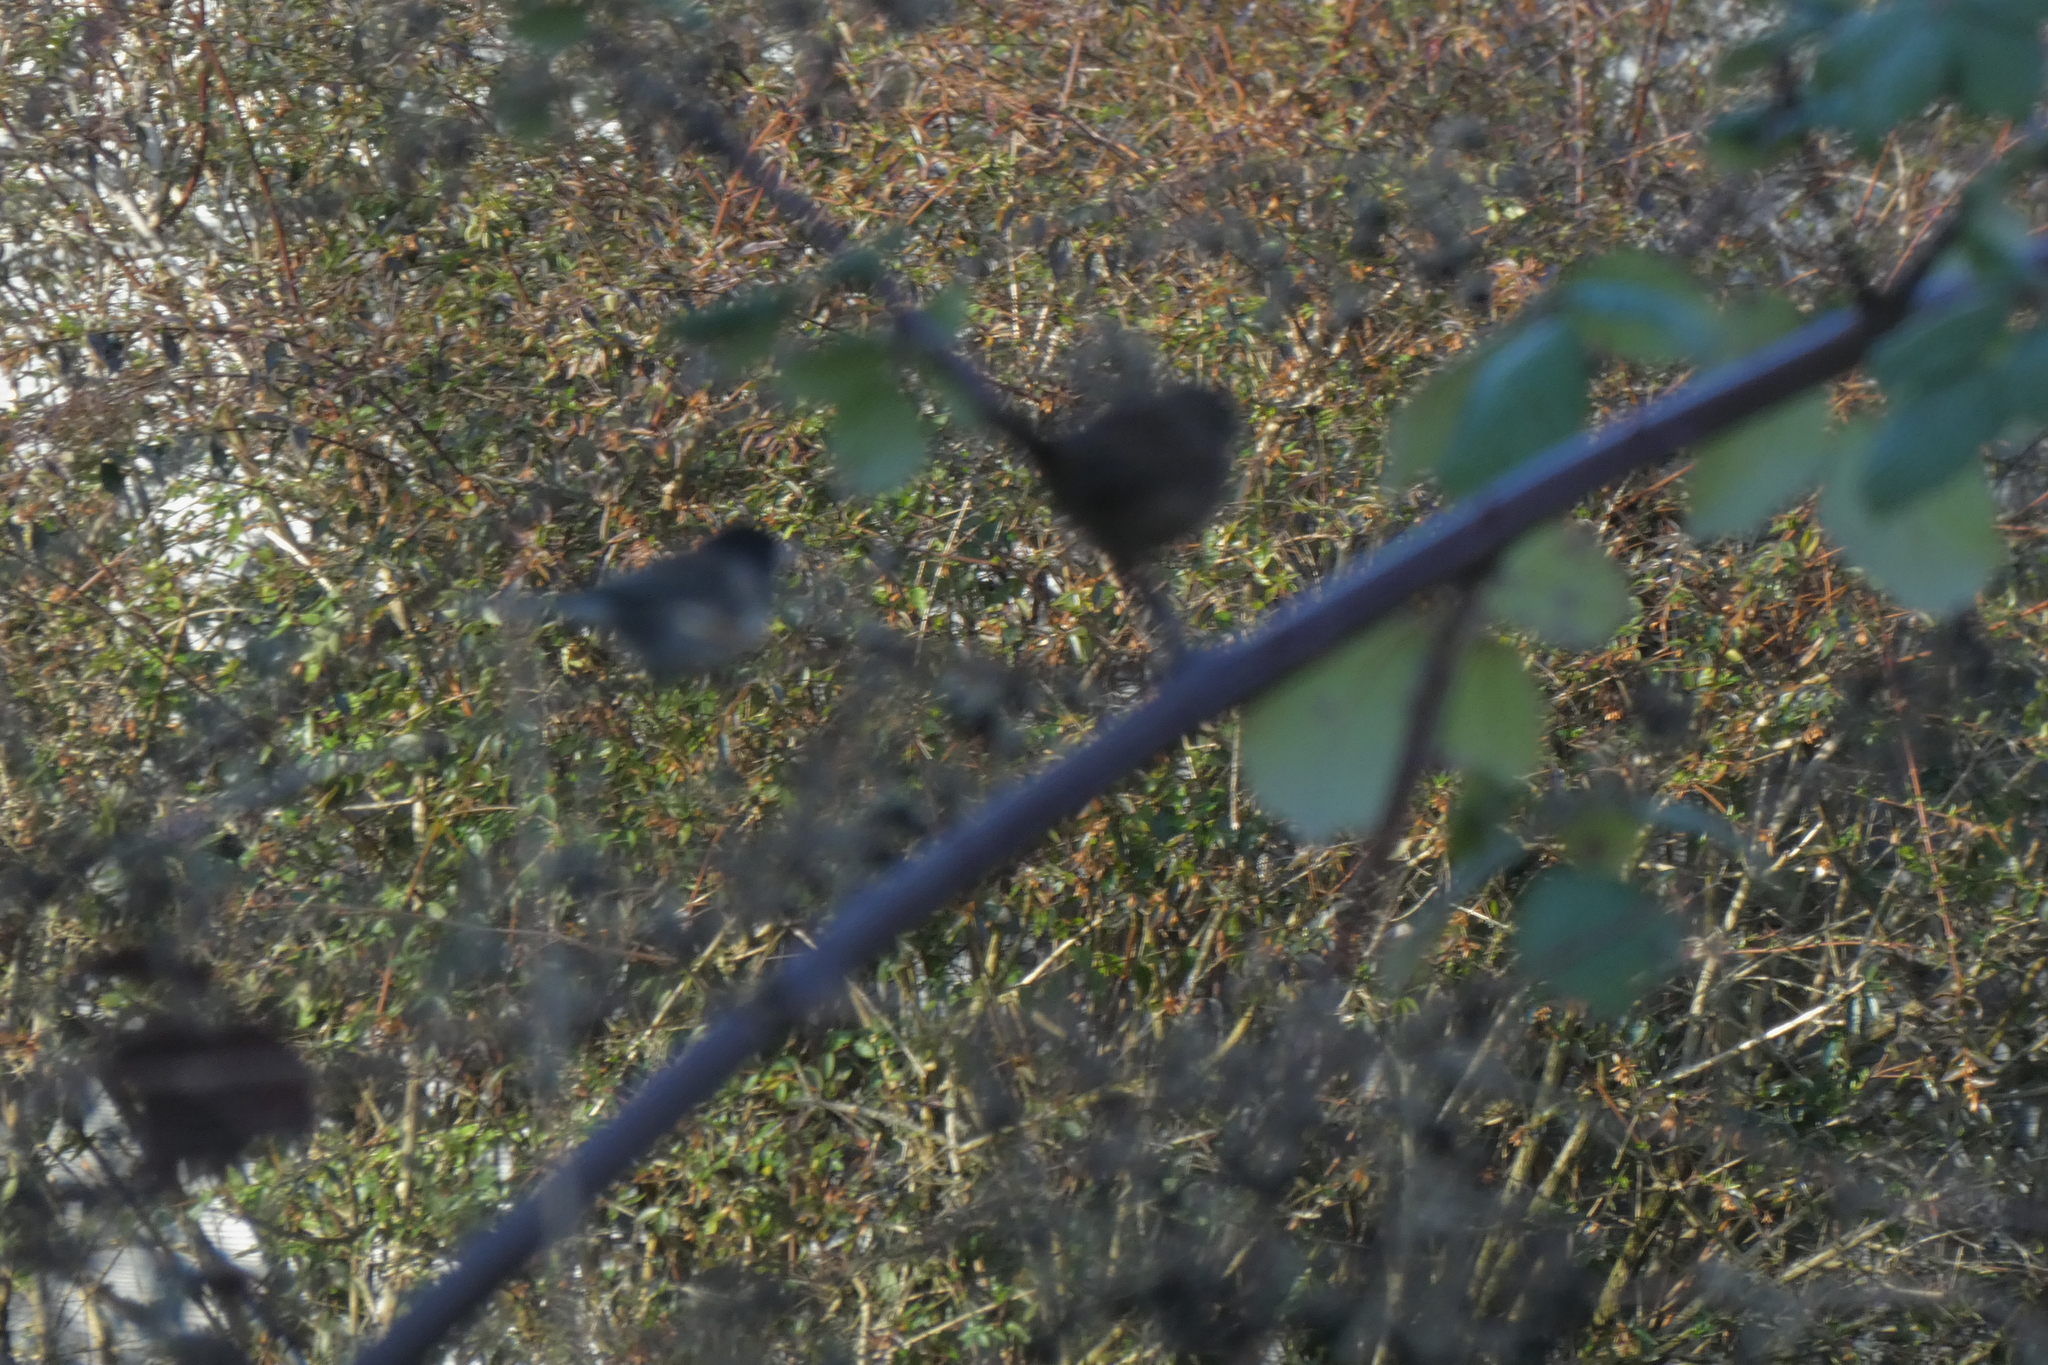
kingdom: Animalia
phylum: Chordata
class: Aves
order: Passeriformes
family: Passerellidae
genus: Melospiza
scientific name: Melospiza melodia
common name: Song sparrow
